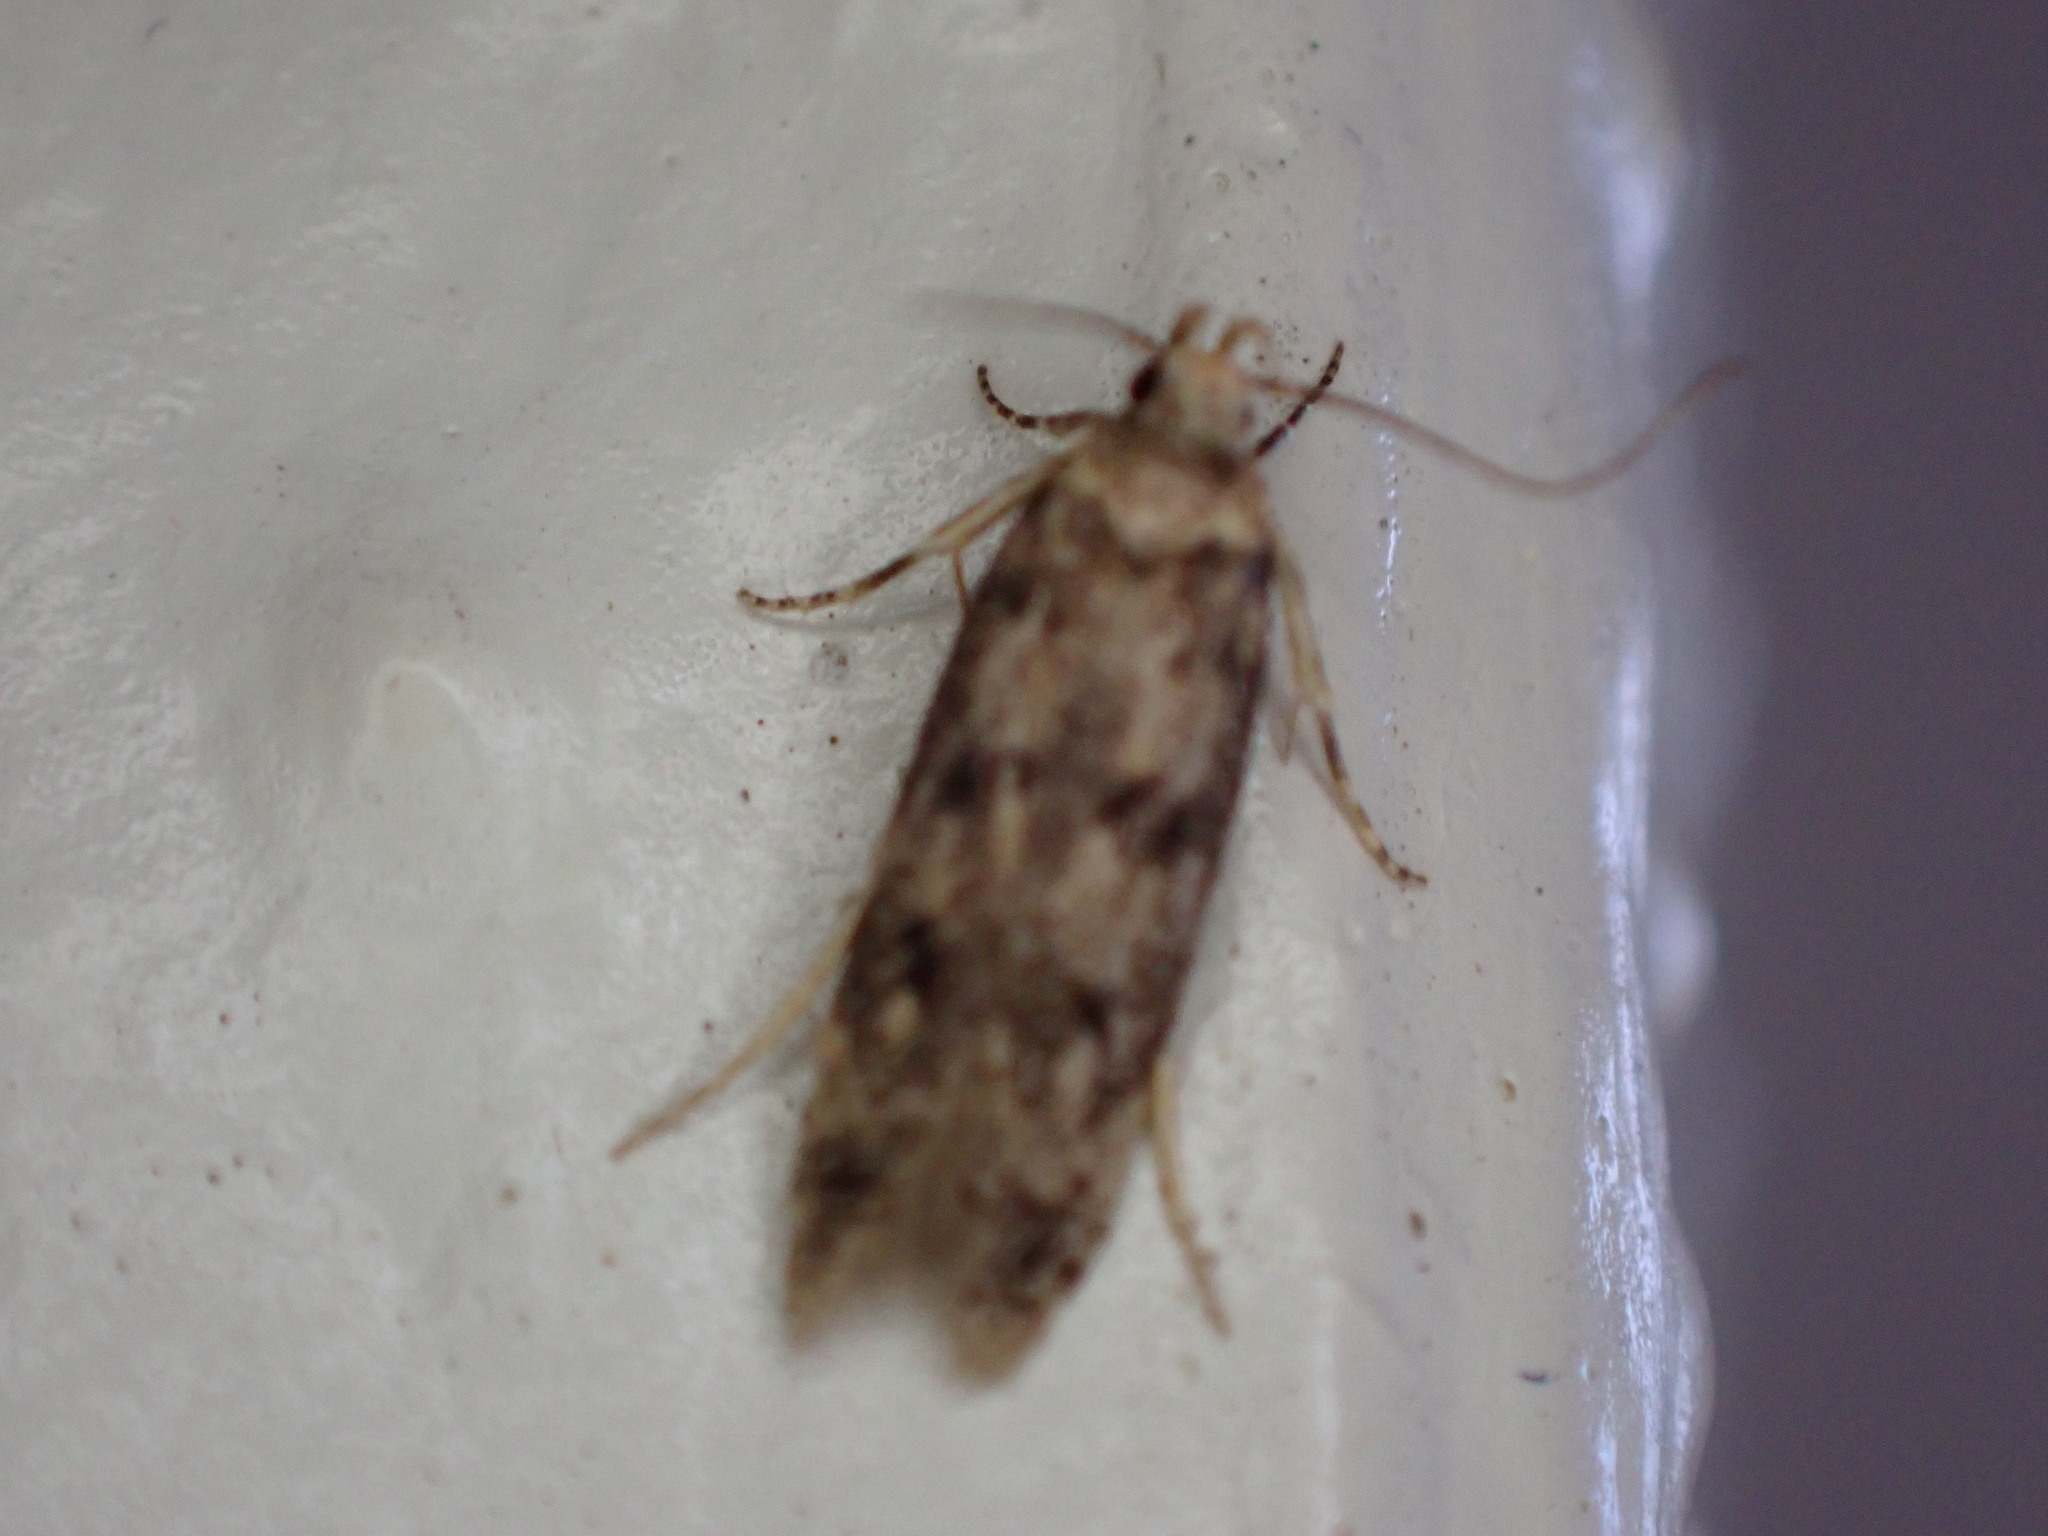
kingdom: Animalia
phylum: Arthropoda
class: Insecta
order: Lepidoptera
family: Oecophoridae
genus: Hofmannophila
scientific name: Hofmannophila pseudospretella
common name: Brown house moth
